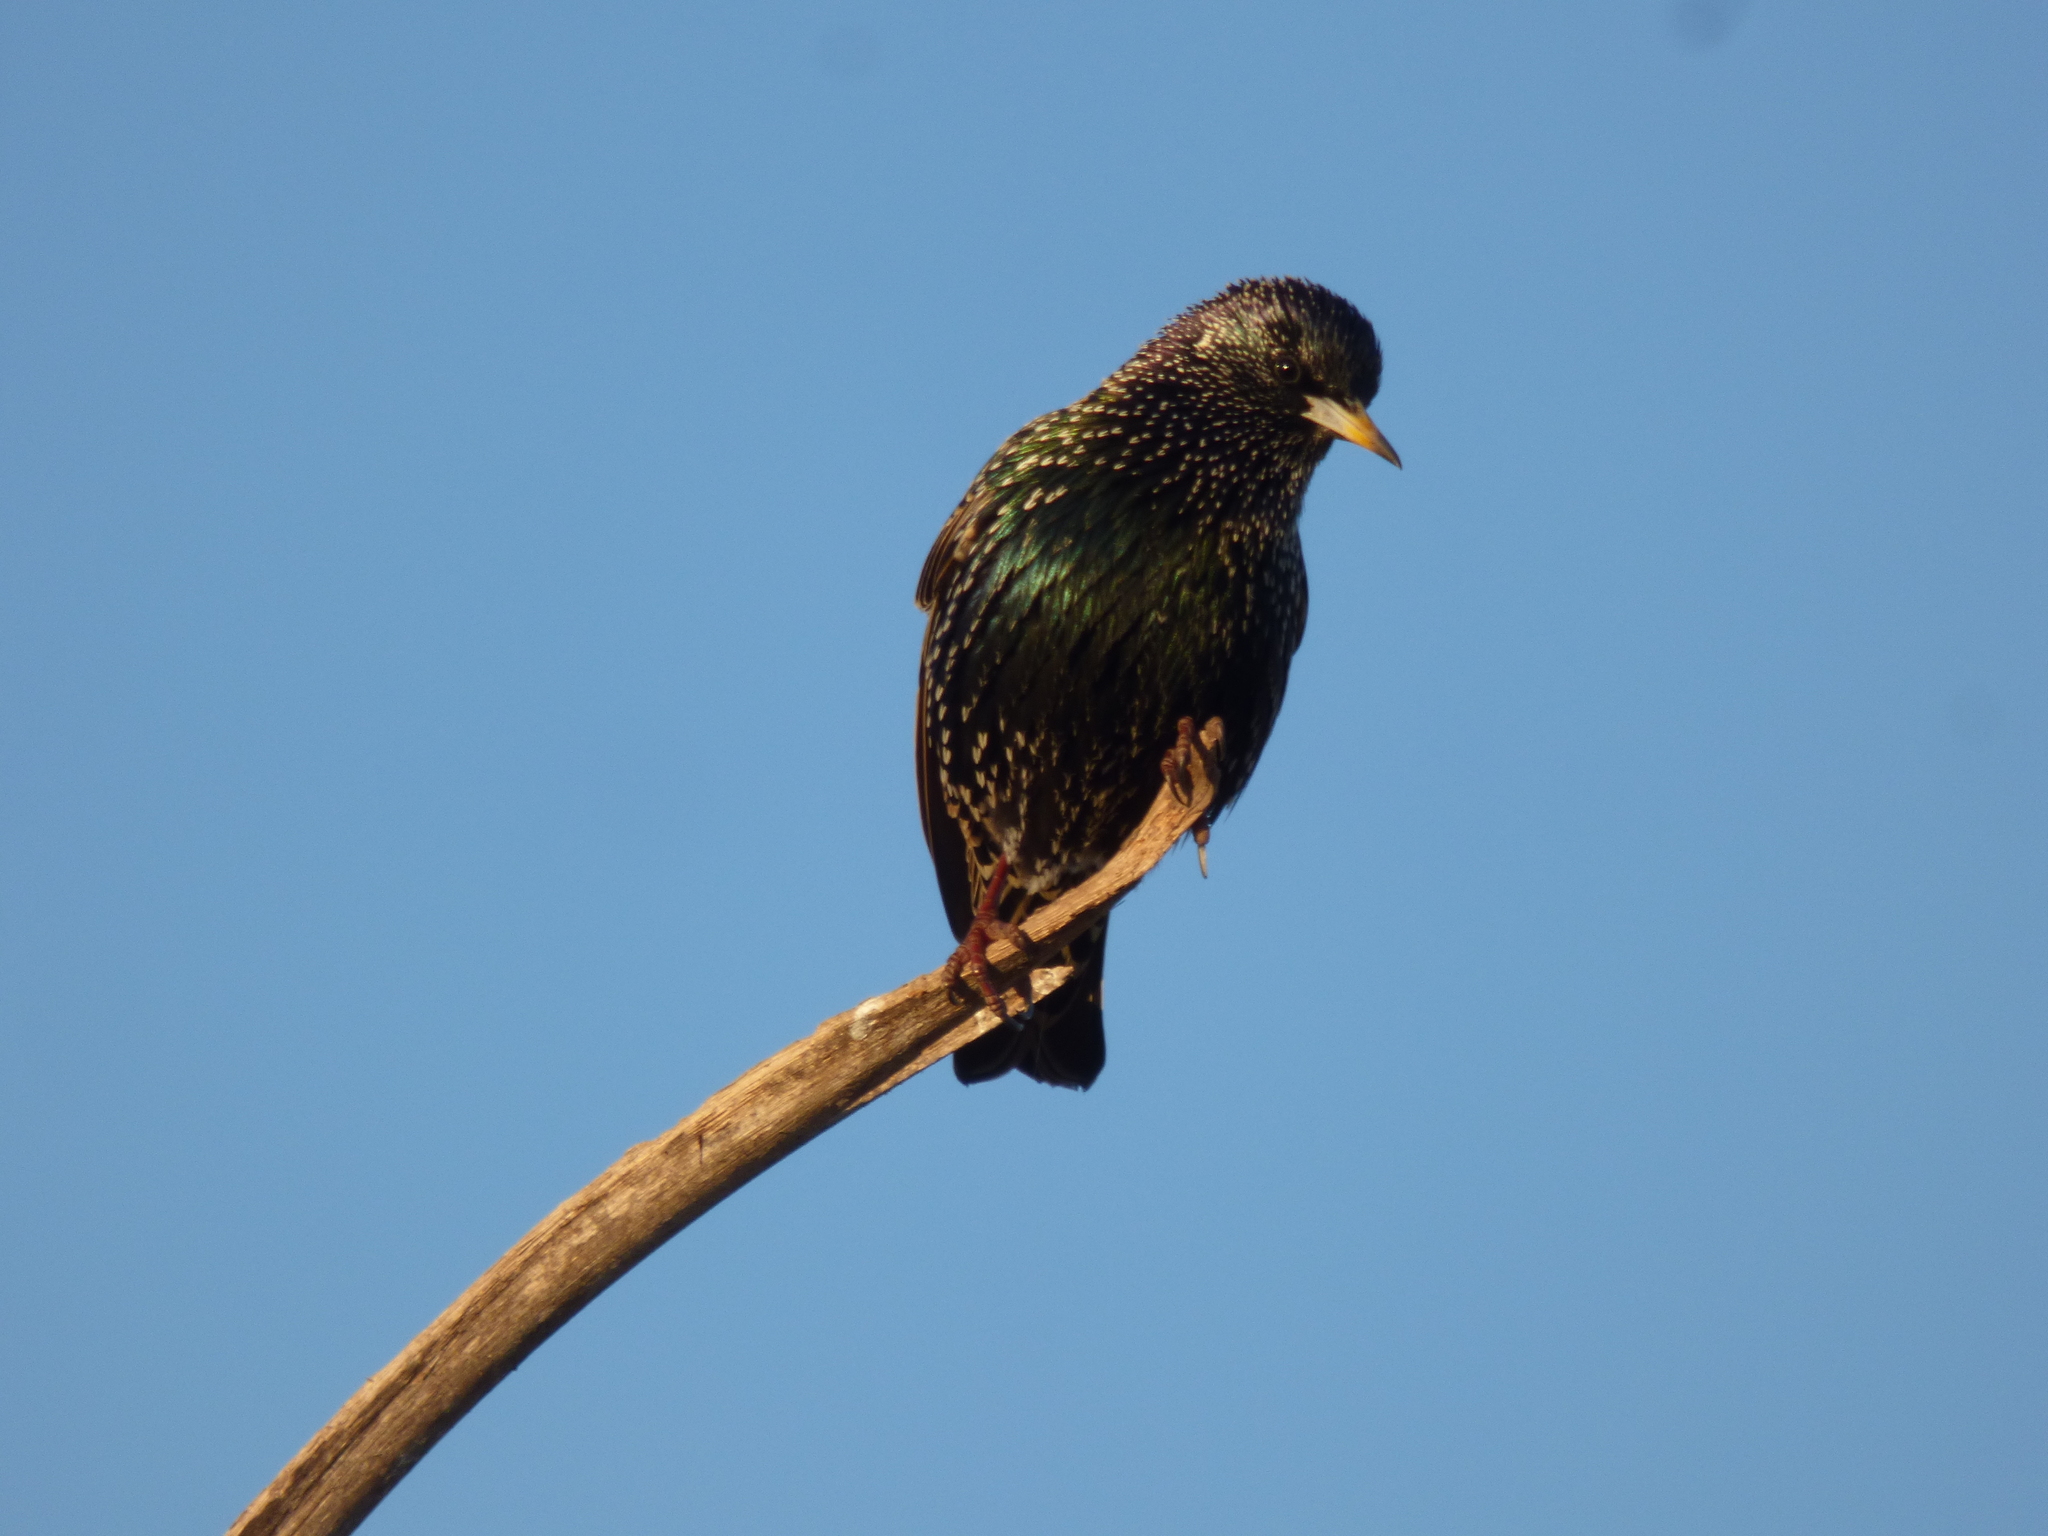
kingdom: Animalia
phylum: Chordata
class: Aves
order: Passeriformes
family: Sturnidae
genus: Sturnus
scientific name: Sturnus vulgaris
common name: Common starling
